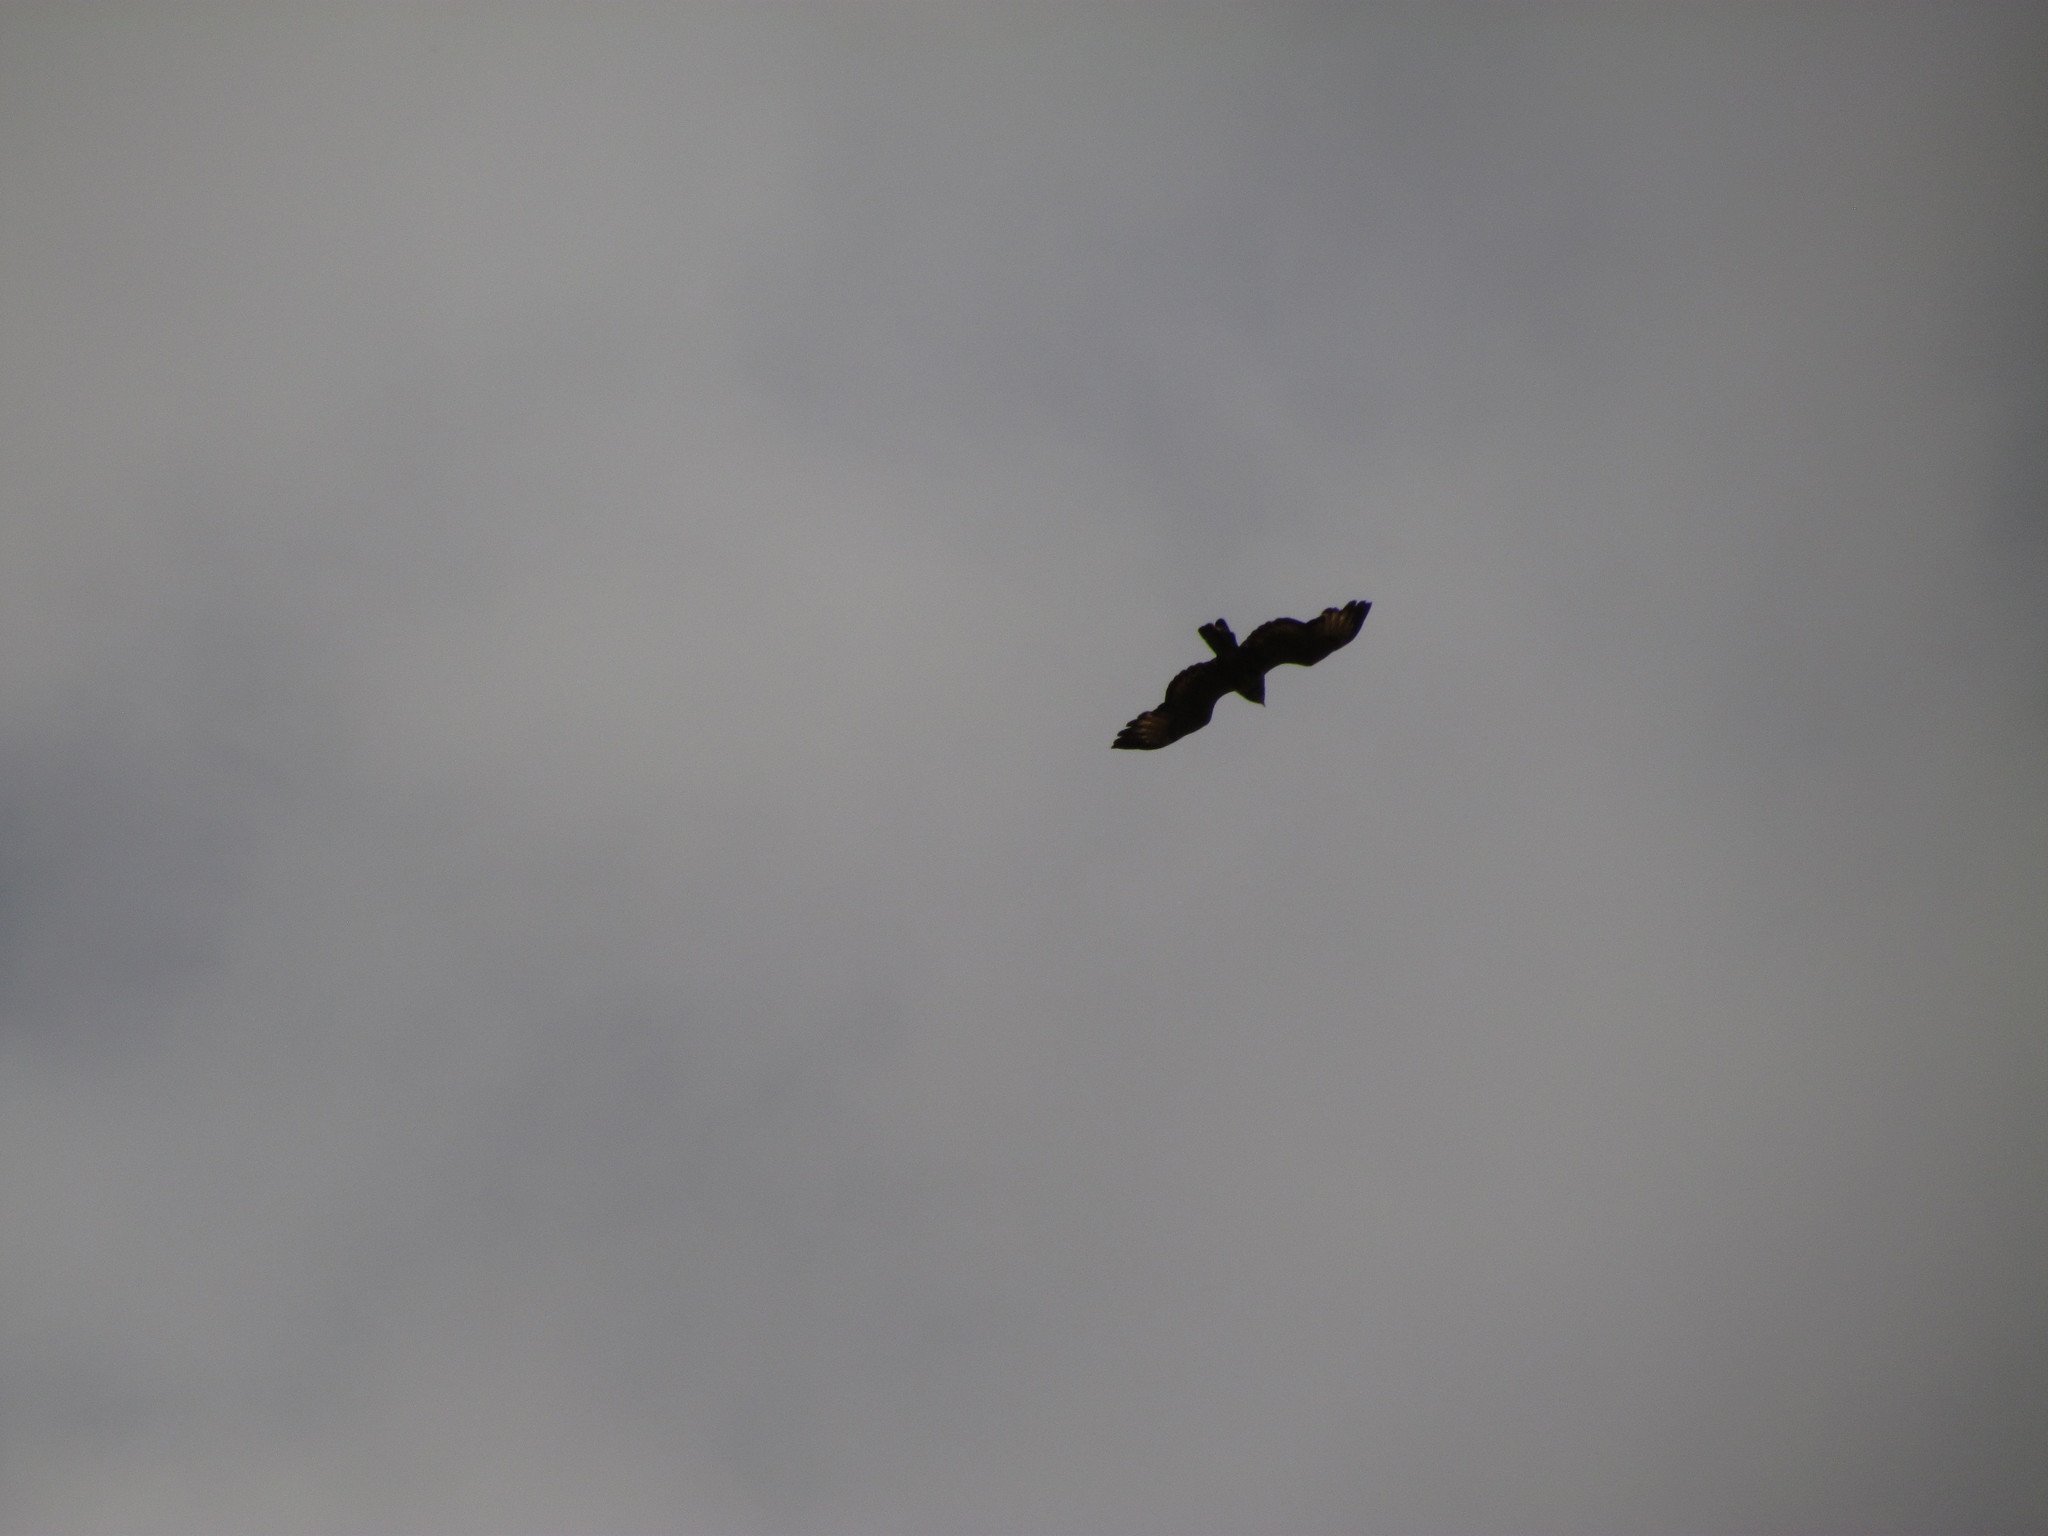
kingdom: Animalia
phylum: Chordata
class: Aves
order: Accipitriformes
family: Accipitridae
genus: Buteogallus
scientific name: Buteogallus meridionalis
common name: Savanna hawk
